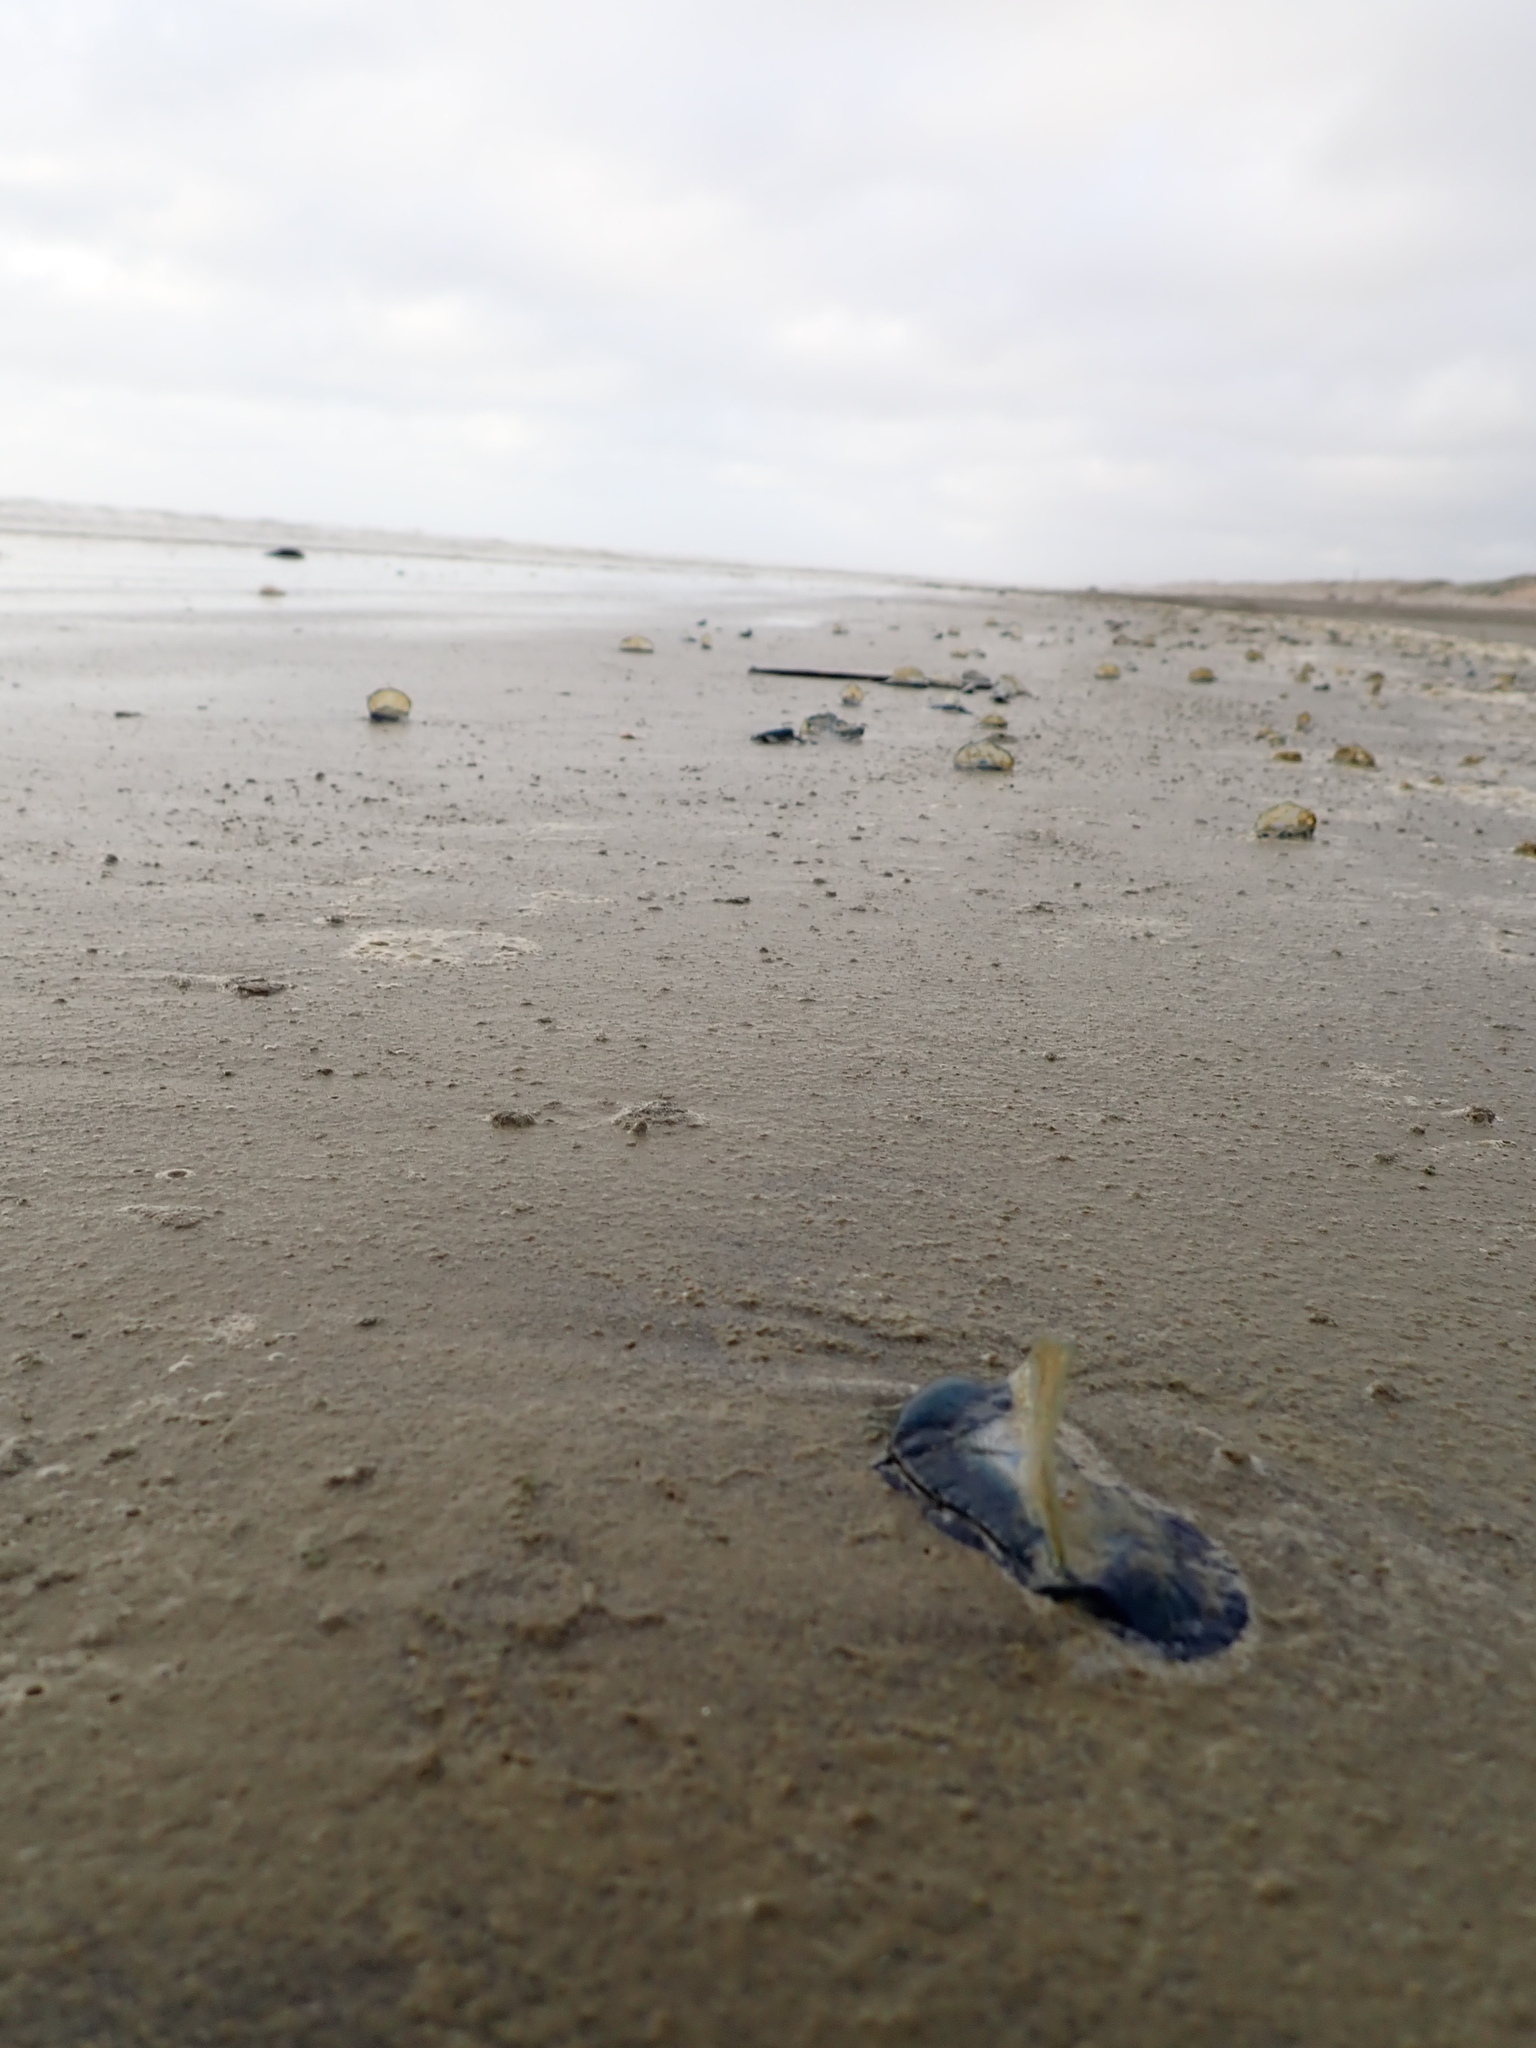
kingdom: Animalia
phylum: Cnidaria
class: Hydrozoa
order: Anthoathecata
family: Porpitidae
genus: Velella
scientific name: Velella velella
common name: By-the-wind-sailor
